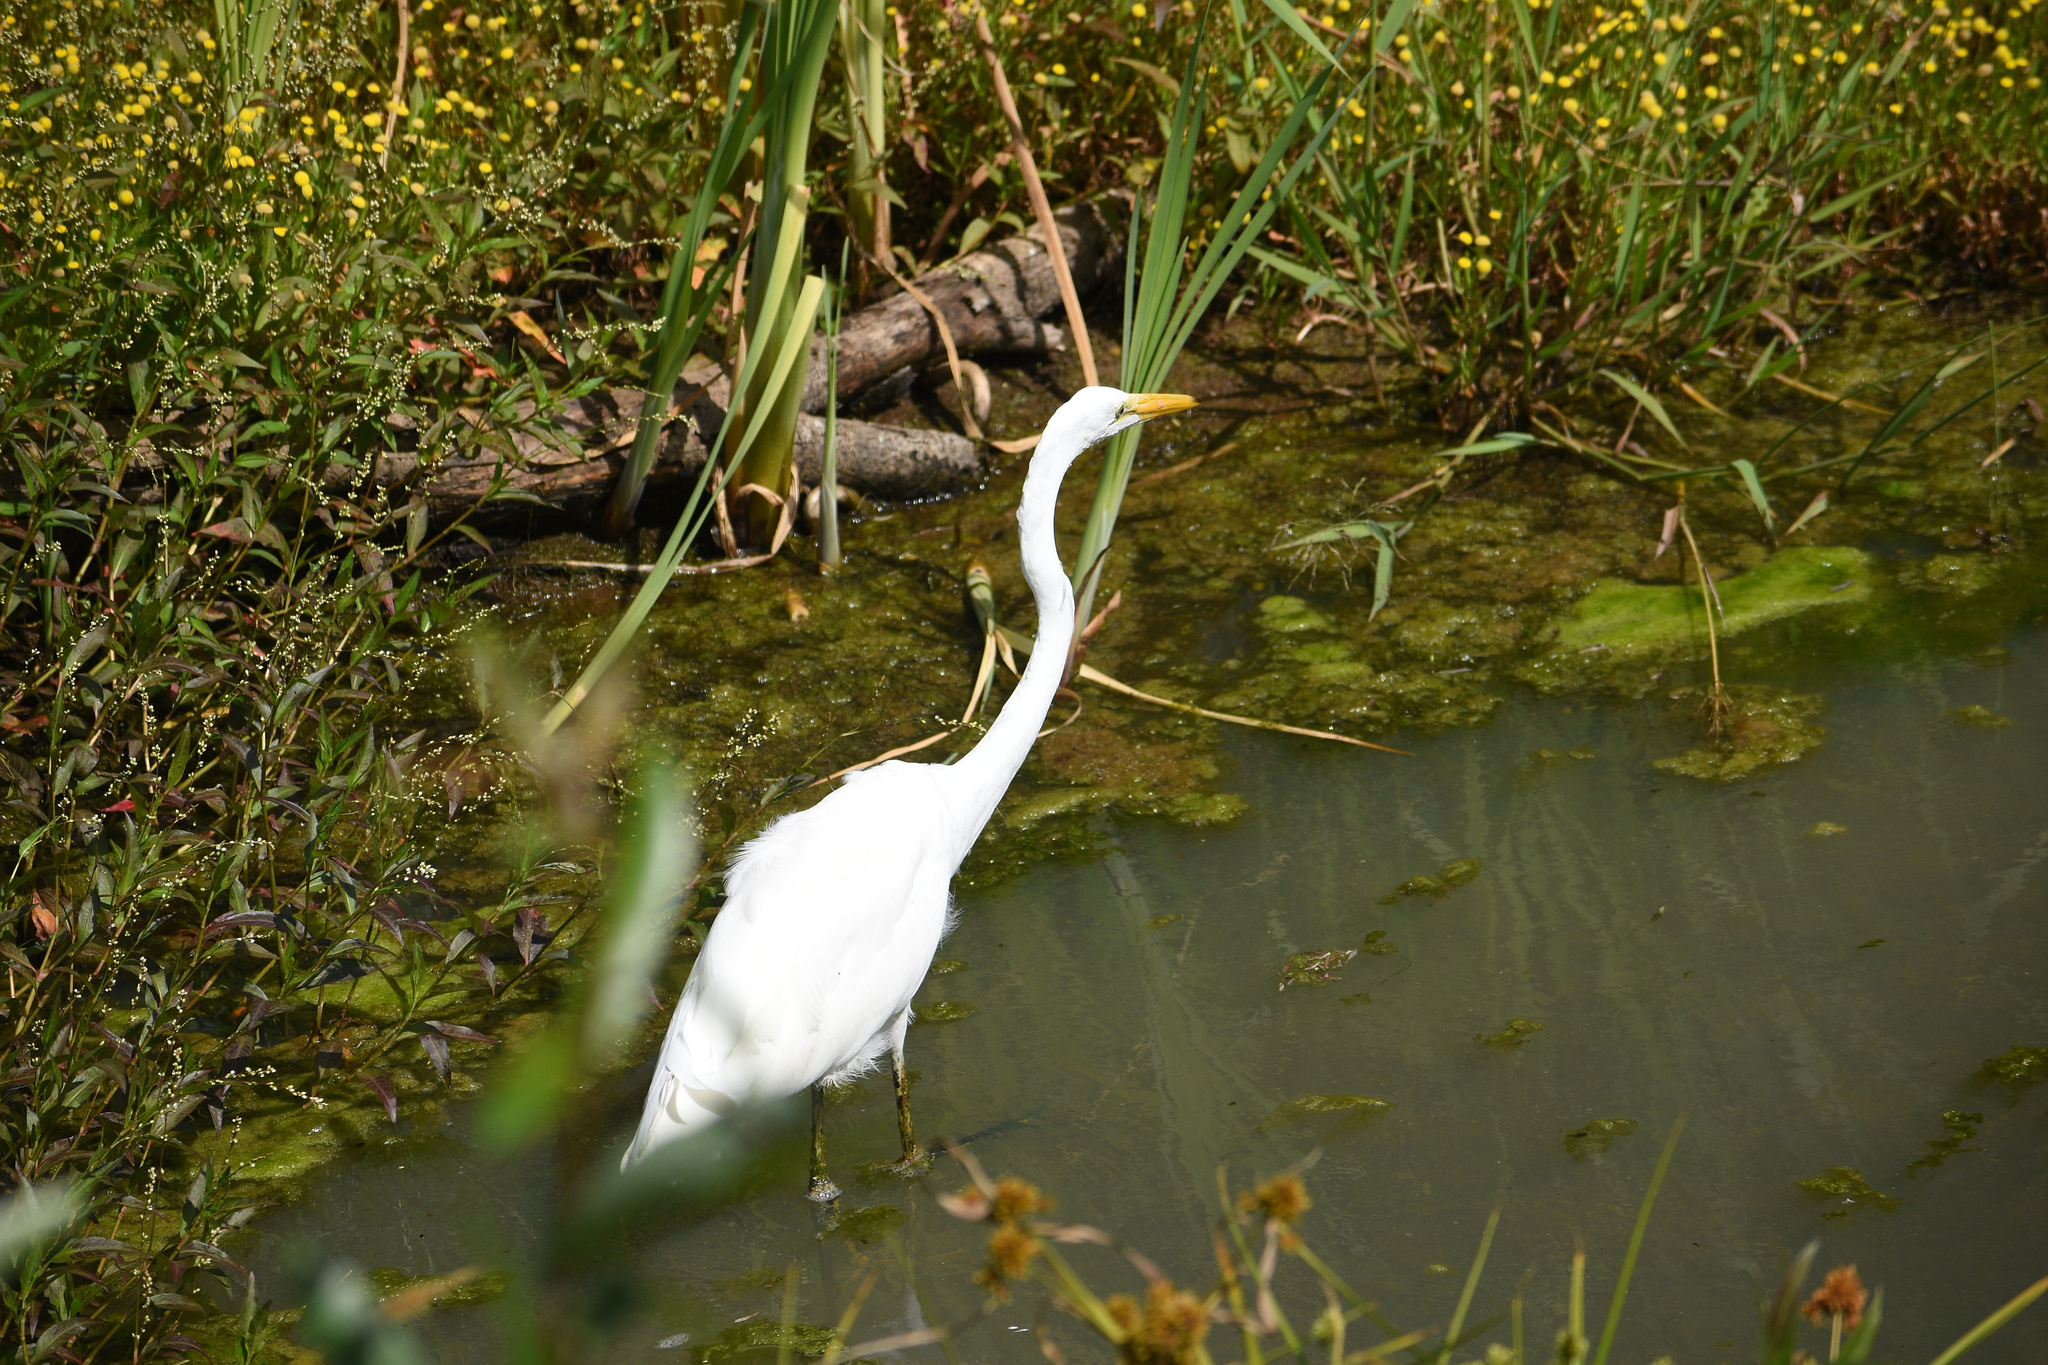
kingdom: Animalia
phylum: Chordata
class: Aves
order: Pelecaniformes
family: Ardeidae
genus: Ardea
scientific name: Ardea alba
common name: Great egret
